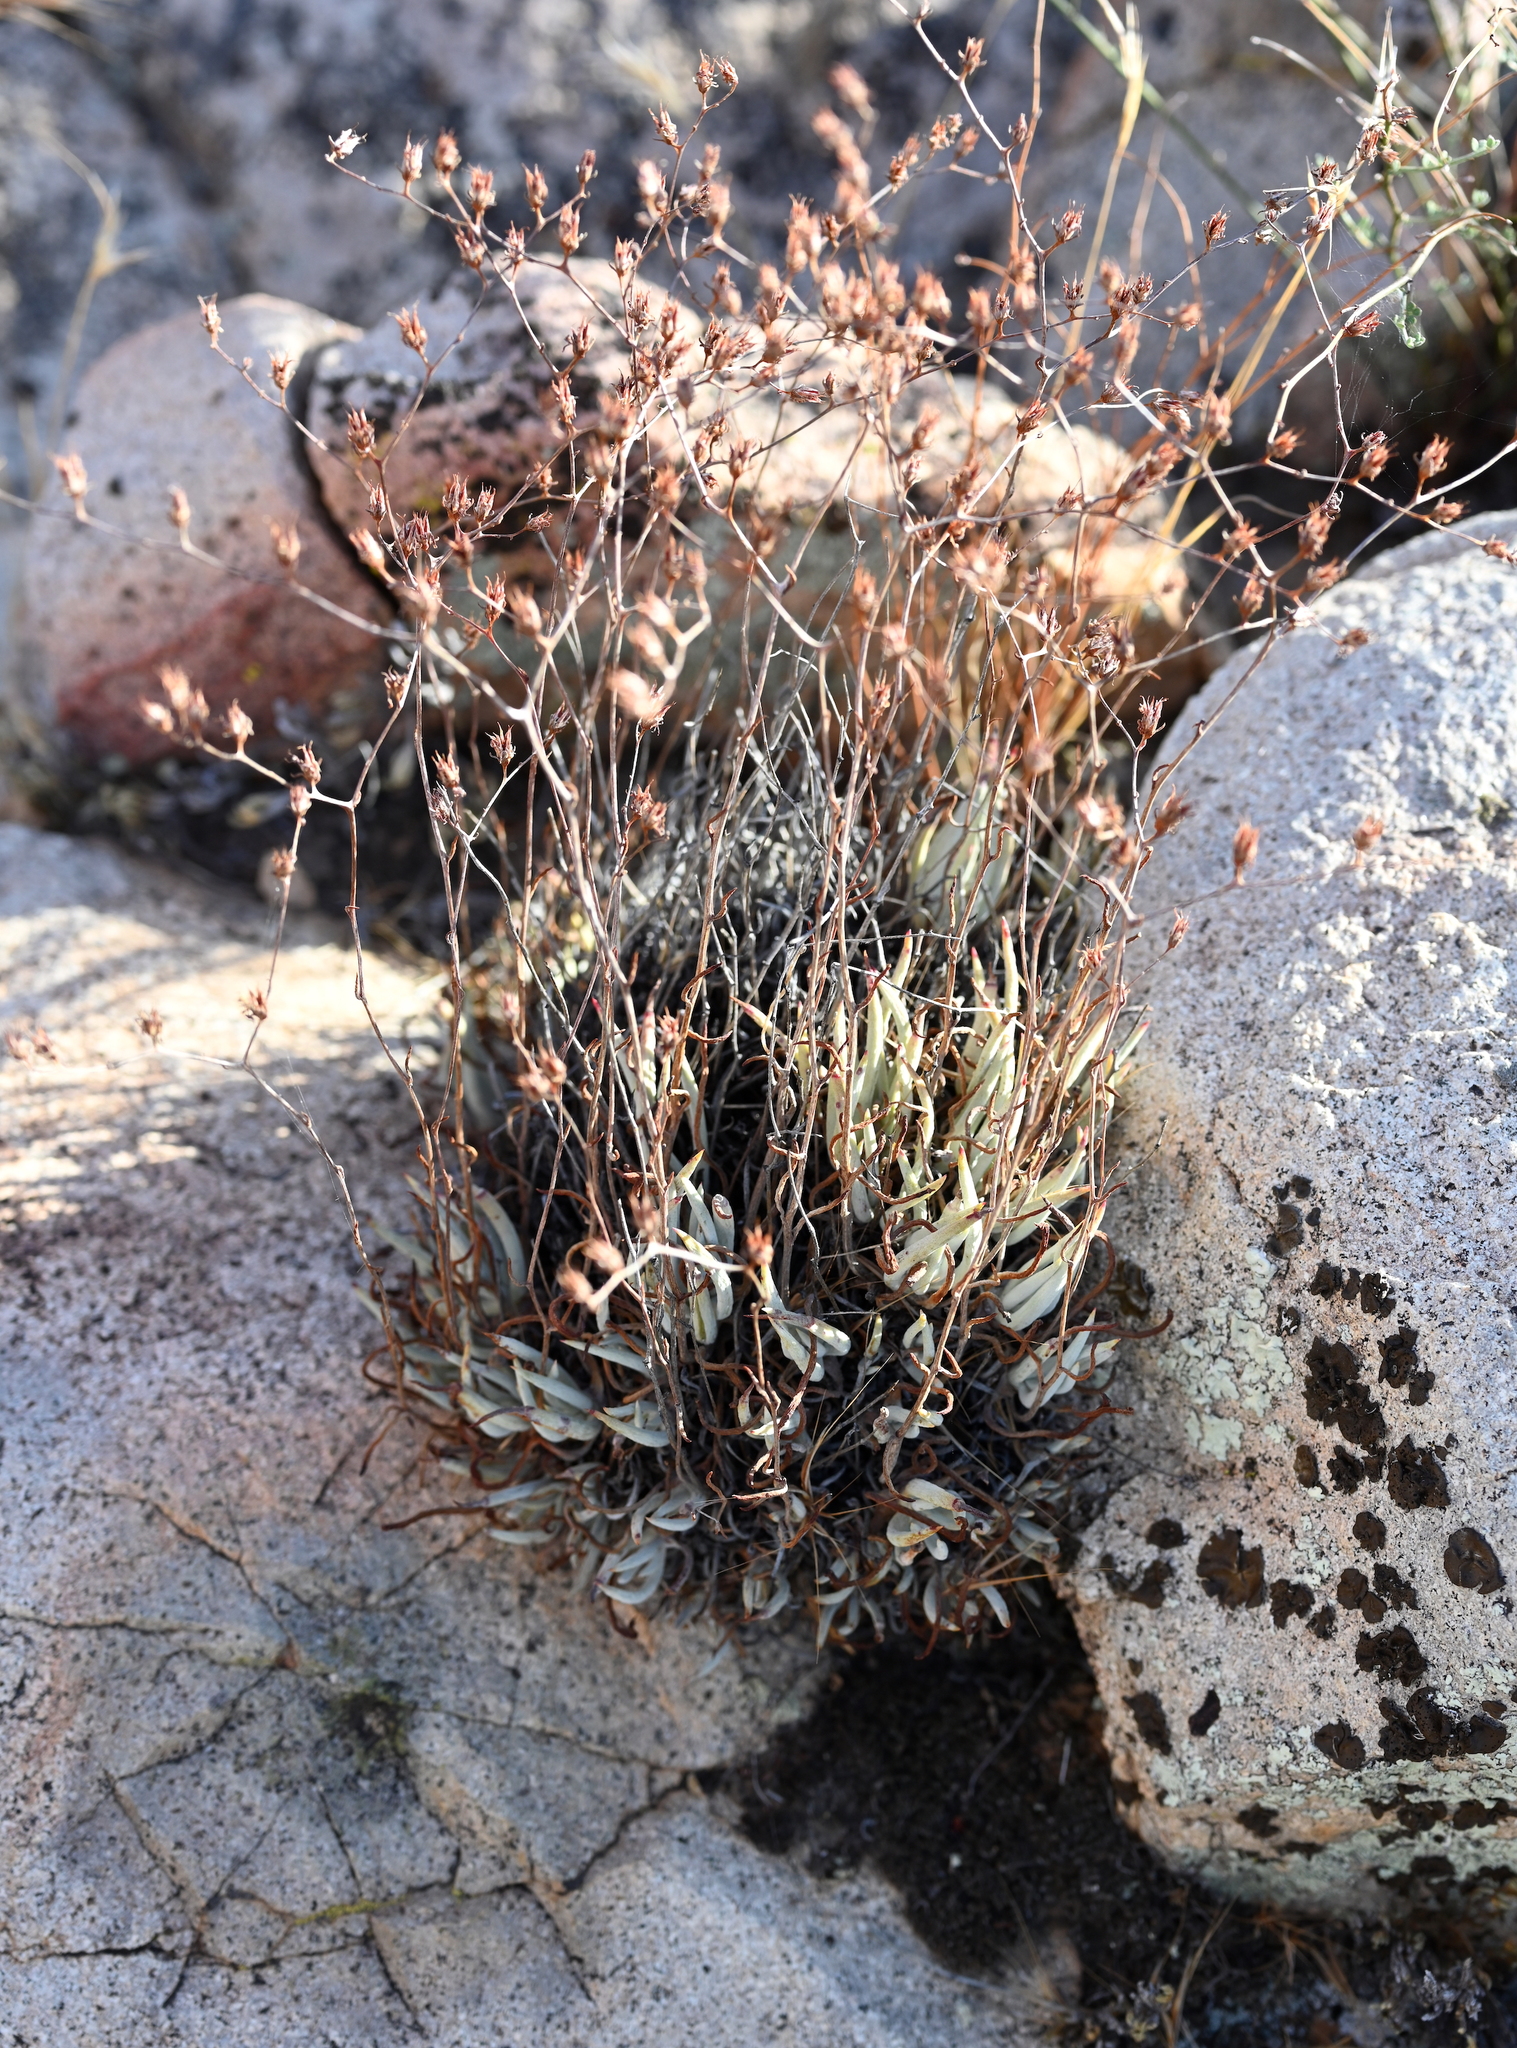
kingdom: Plantae
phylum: Tracheophyta
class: Magnoliopsida
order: Saxifragales
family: Crassulaceae
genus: Dudleya
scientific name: Dudleya attenuata
